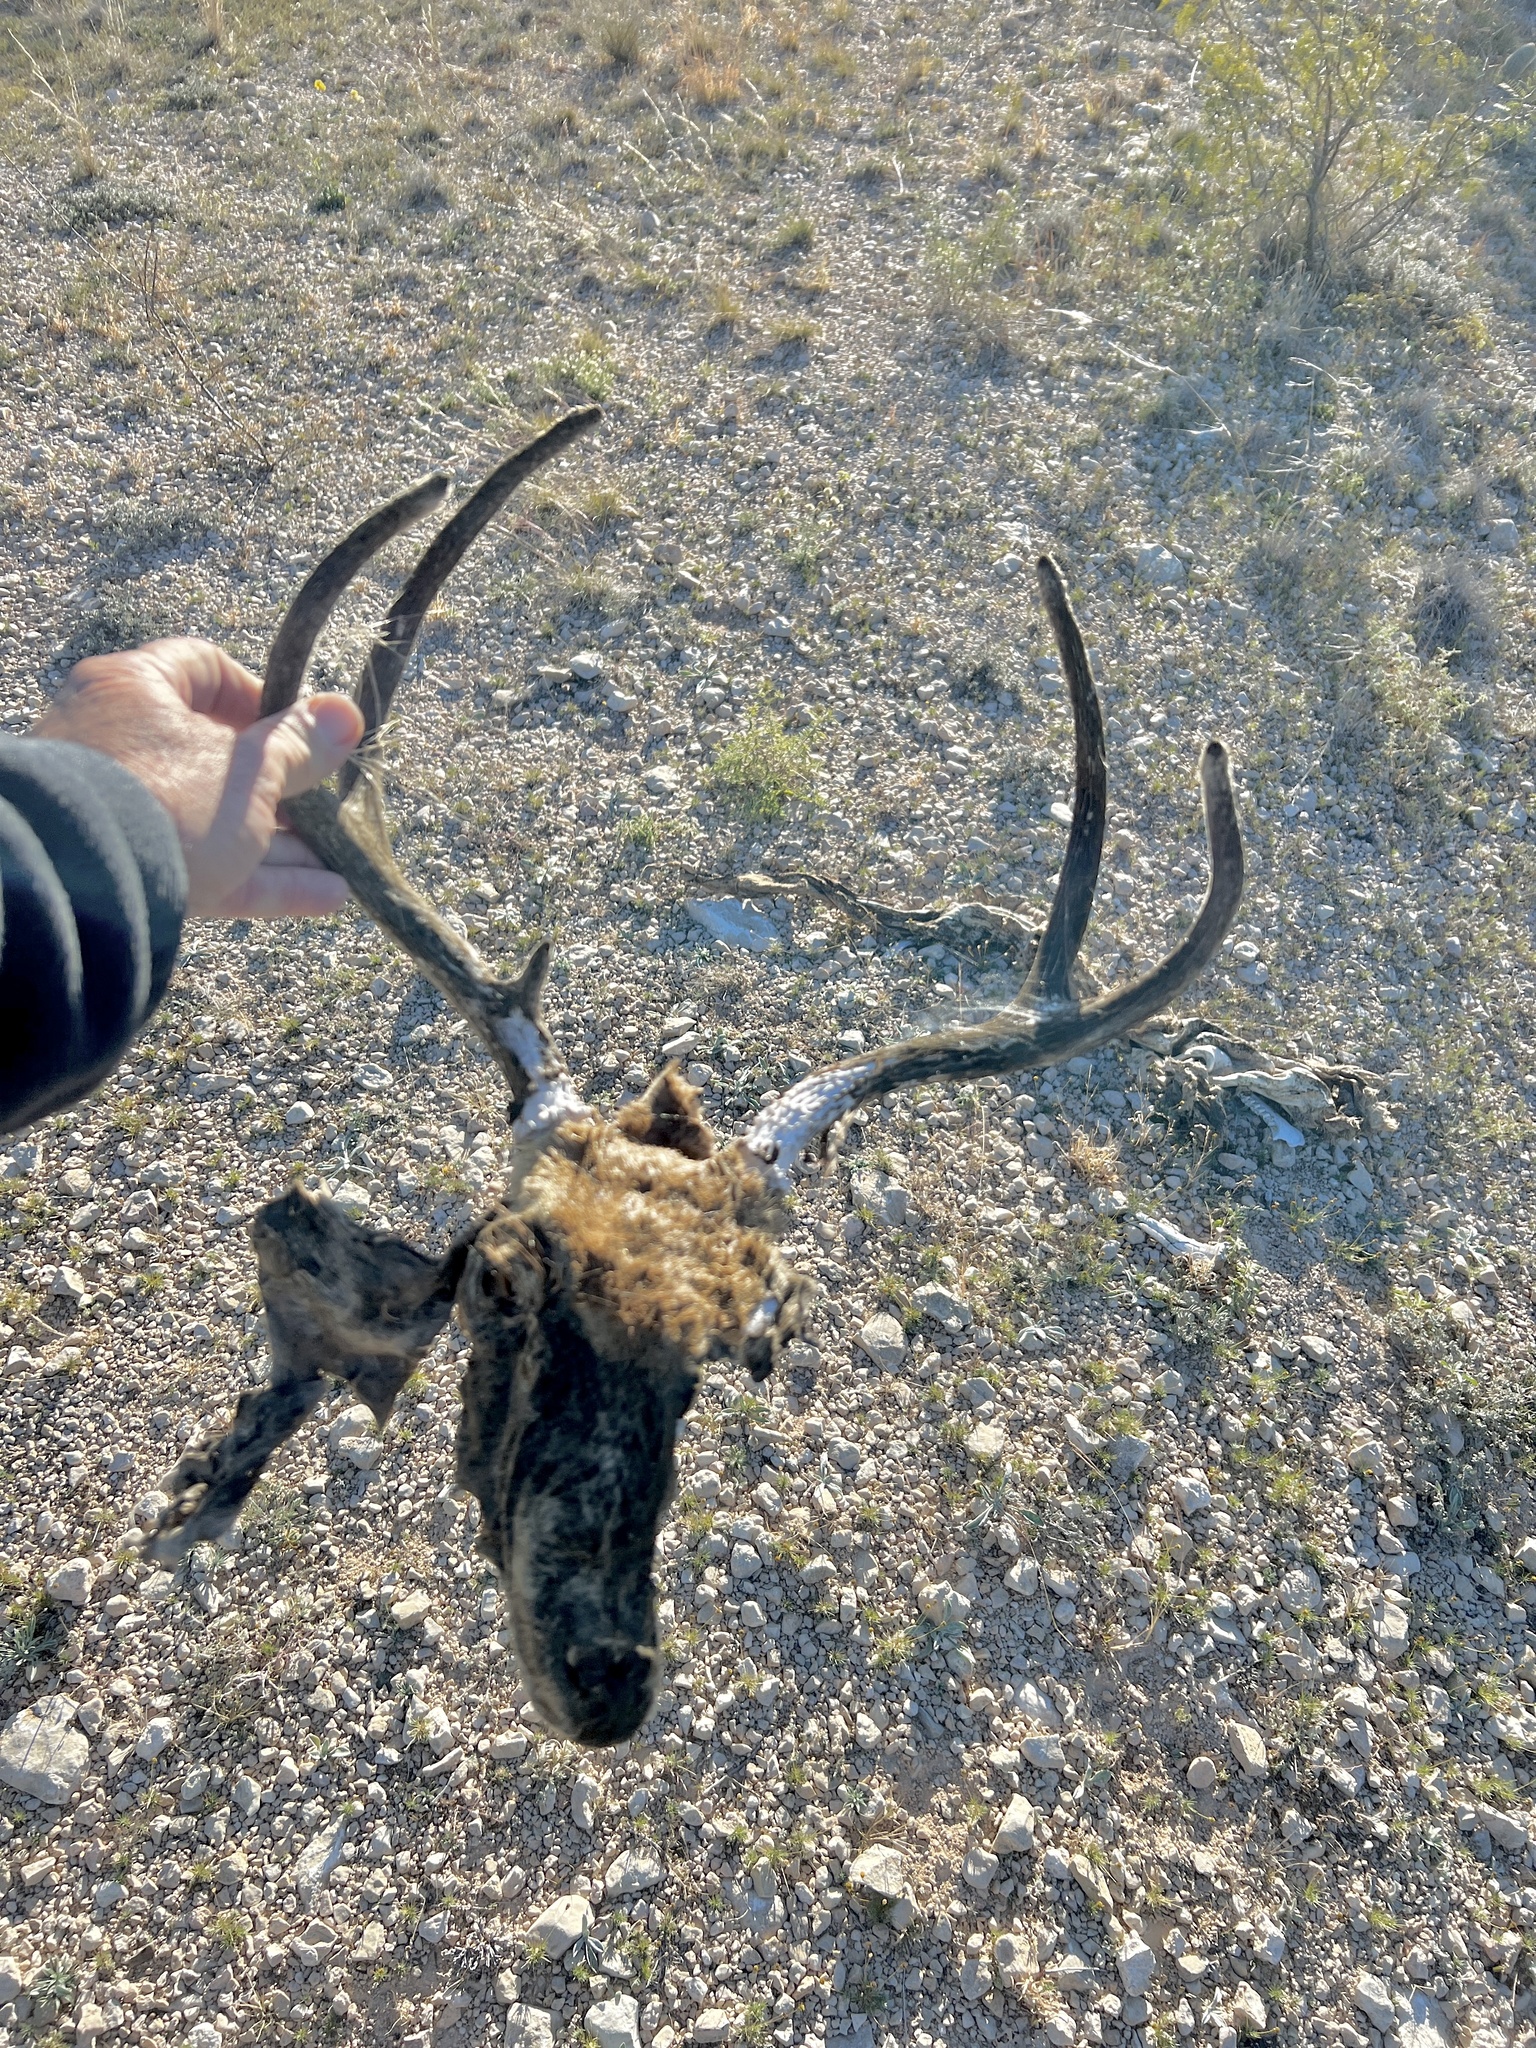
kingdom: Animalia
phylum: Chordata
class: Mammalia
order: Artiodactyla
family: Cervidae
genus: Odocoileus
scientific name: Odocoileus hemionus
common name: Mule deer
